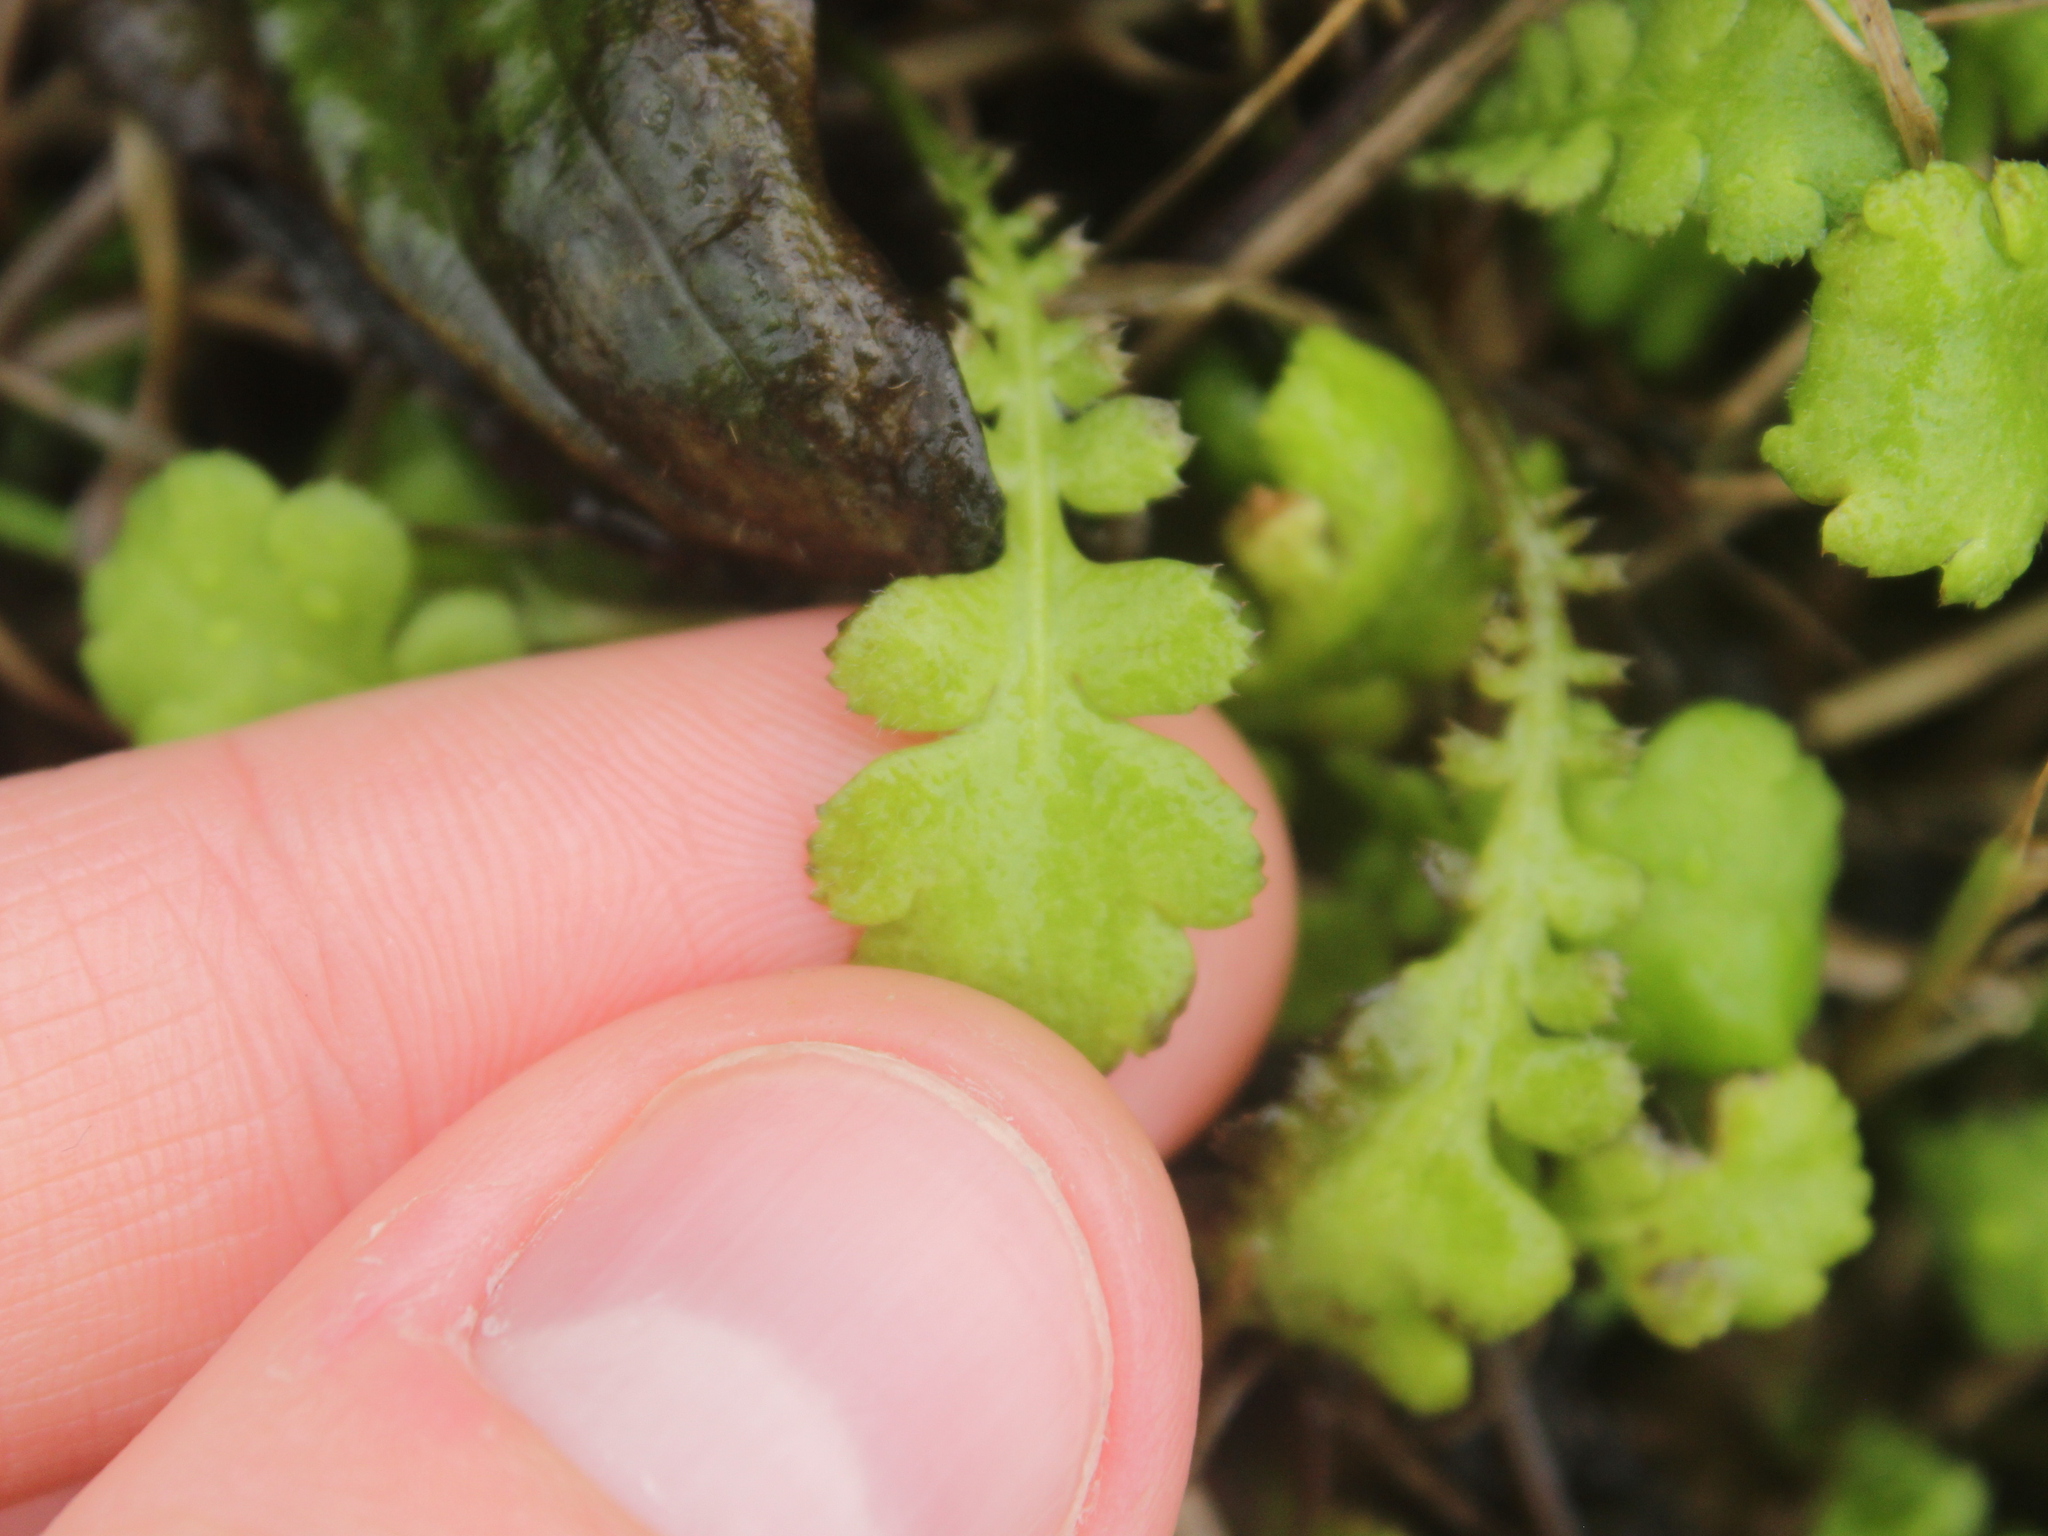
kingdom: Plantae
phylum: Tracheophyta
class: Magnoliopsida
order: Asterales
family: Asteraceae
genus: Leptinella
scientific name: Leptinella squalida
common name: New zealand brass-buttons
